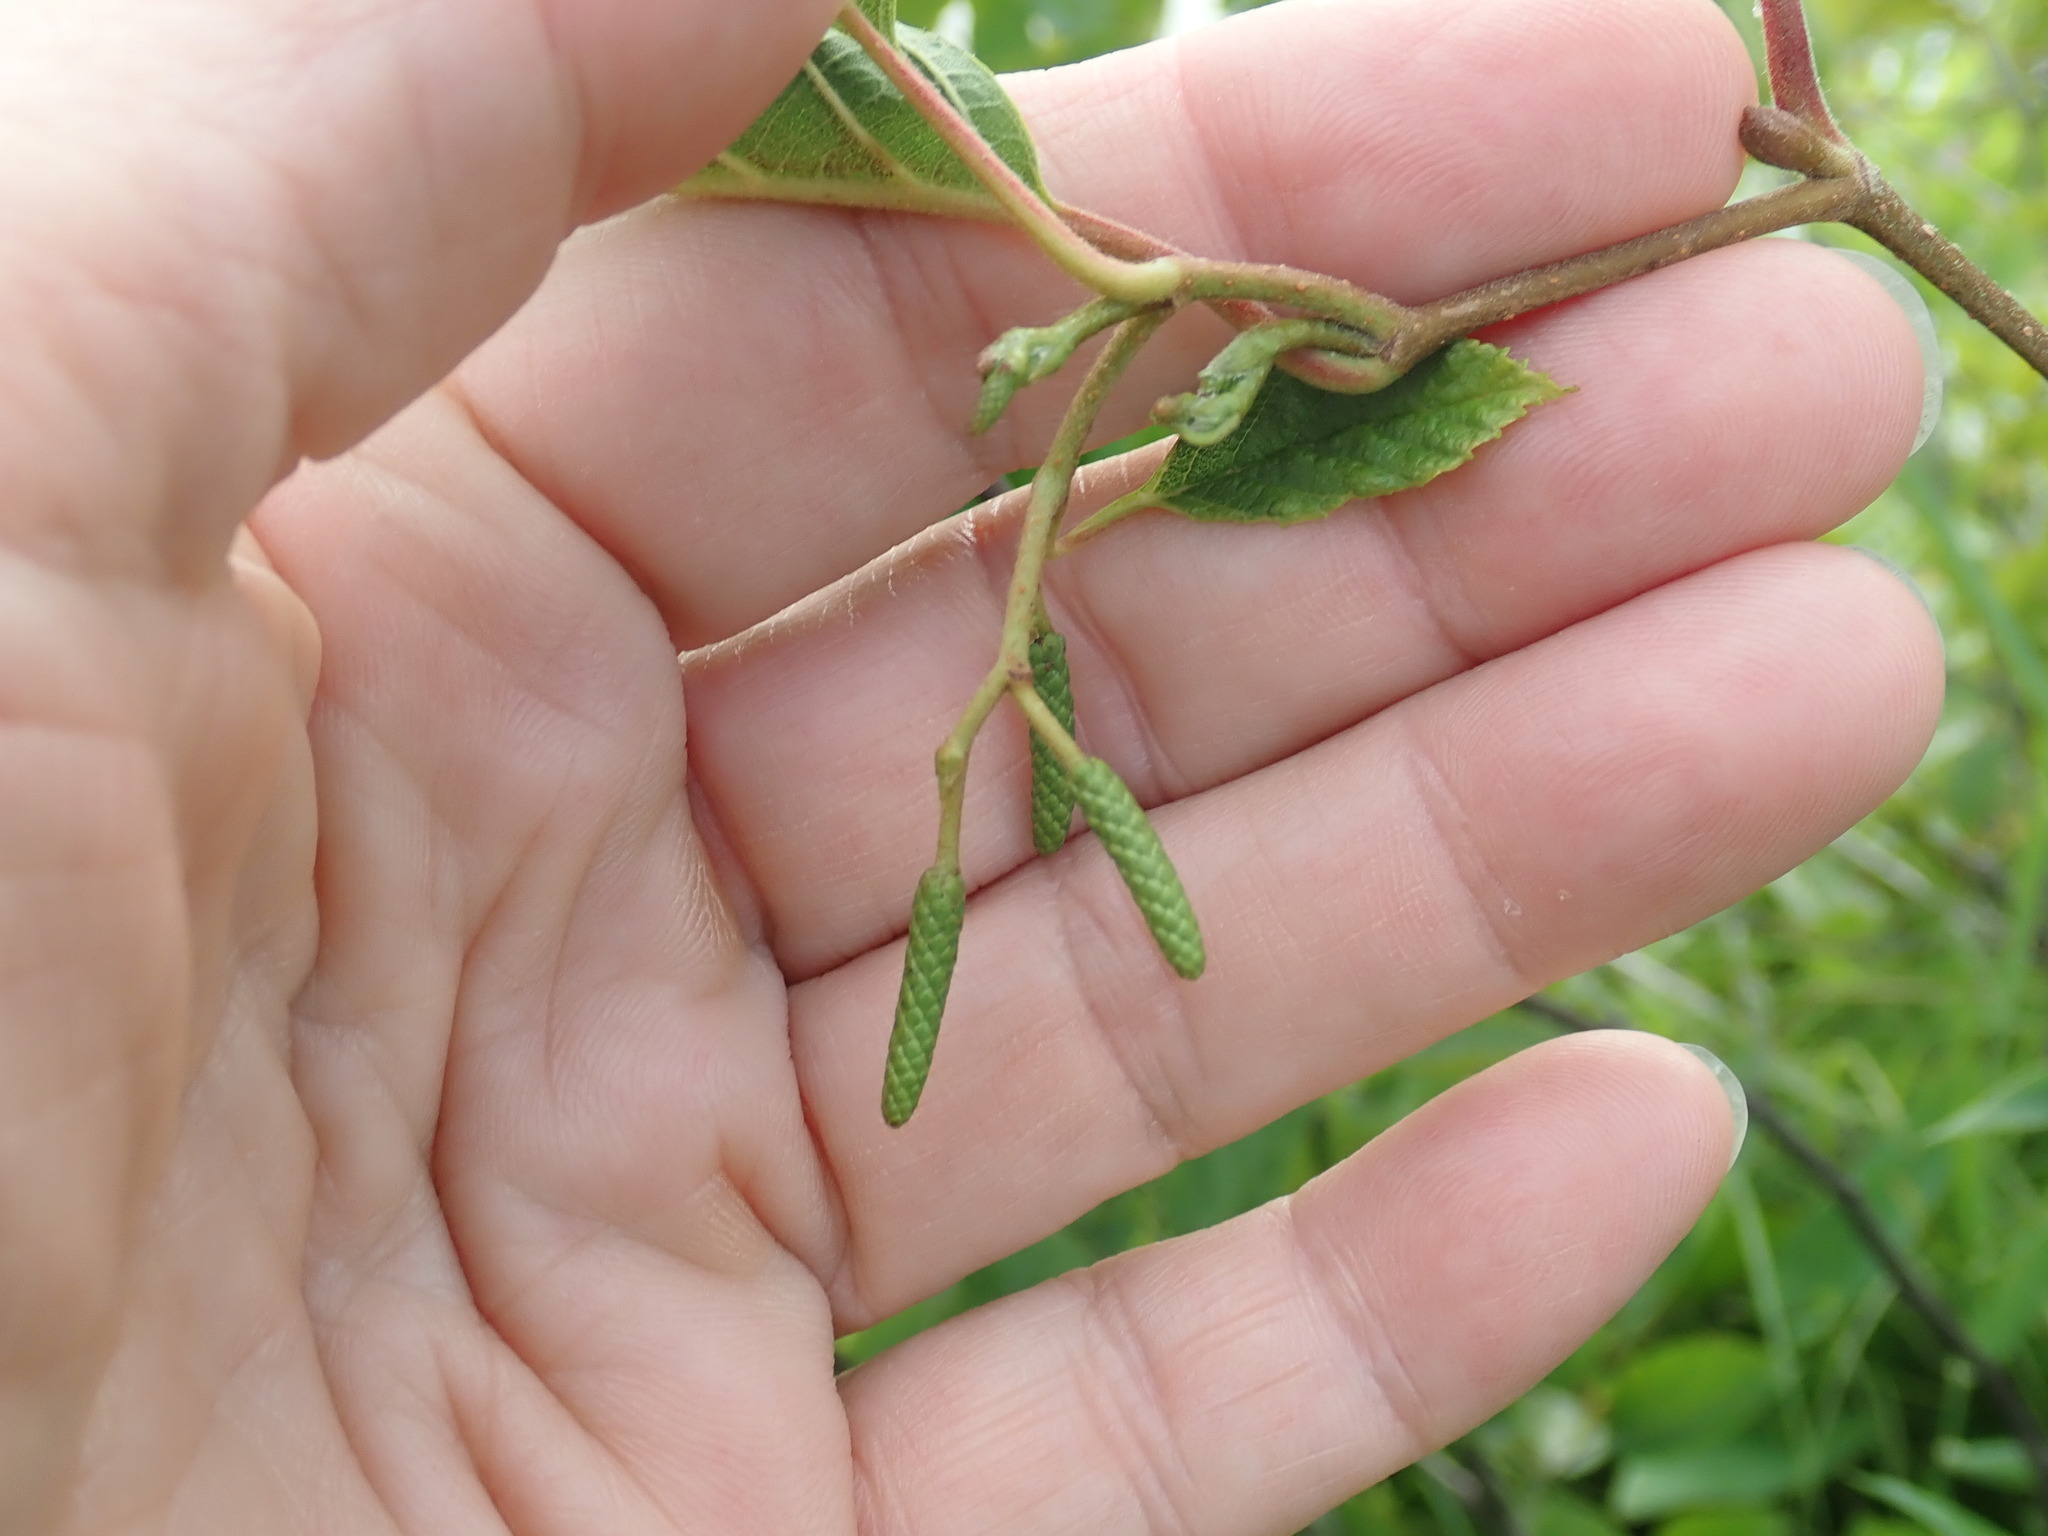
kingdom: Plantae
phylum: Tracheophyta
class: Magnoliopsida
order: Fagales
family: Betulaceae
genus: Alnus
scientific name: Alnus incana
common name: Grey alder
